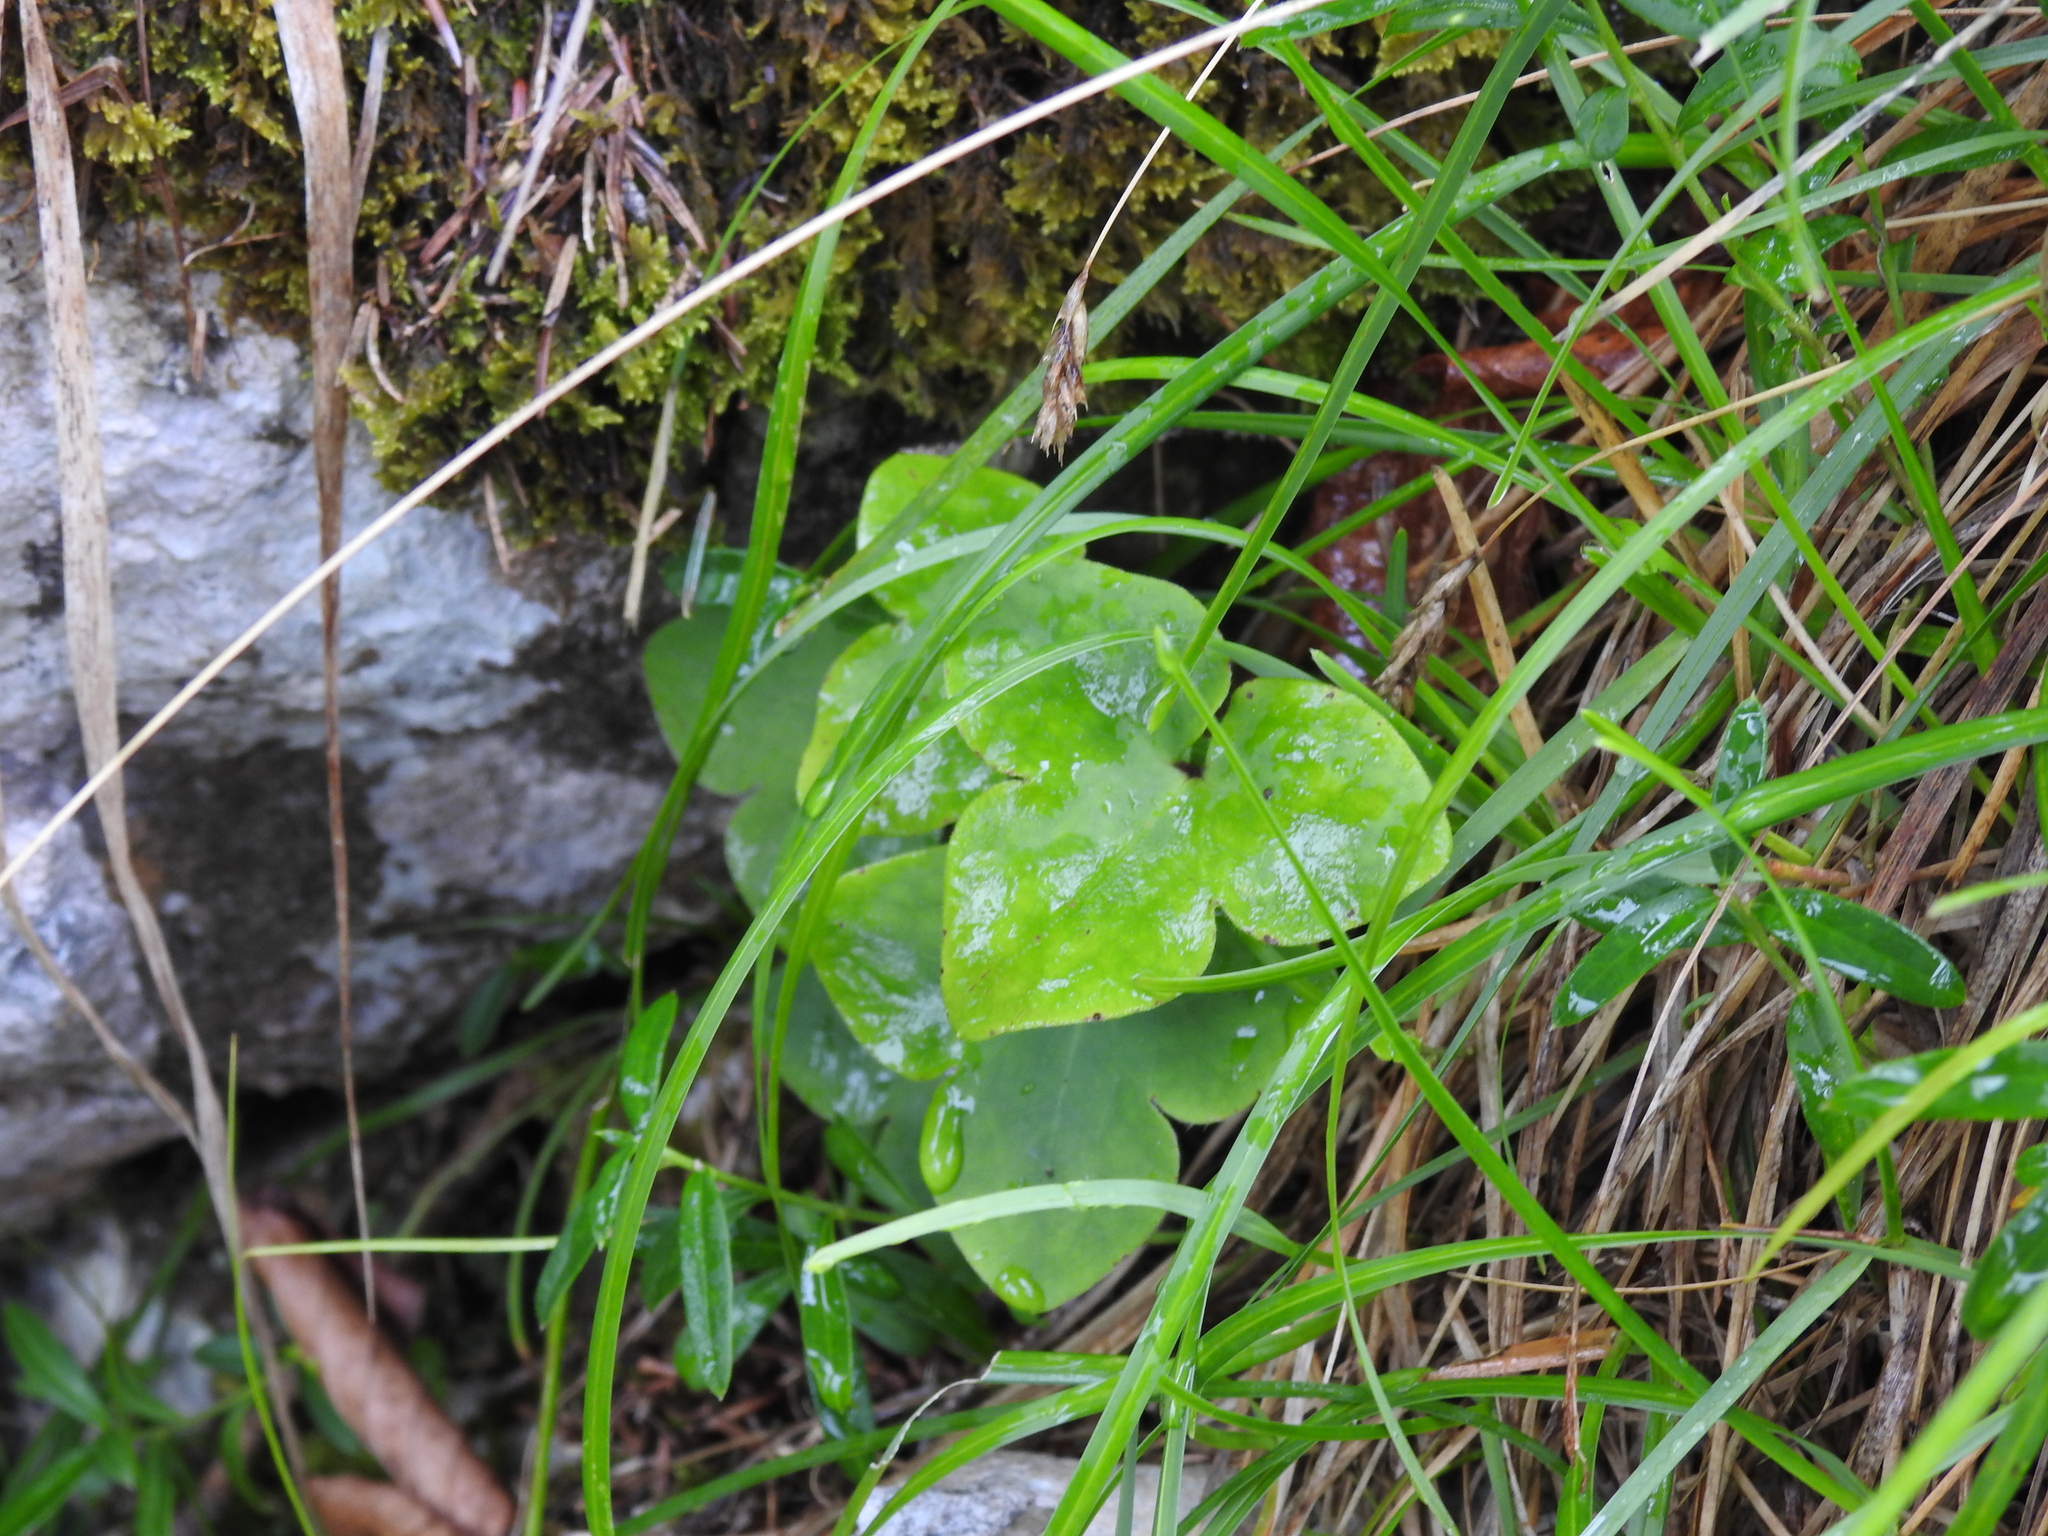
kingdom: Plantae
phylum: Tracheophyta
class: Magnoliopsida
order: Ranunculales
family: Ranunculaceae
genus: Hepatica
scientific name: Hepatica nobilis
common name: Liverleaf
